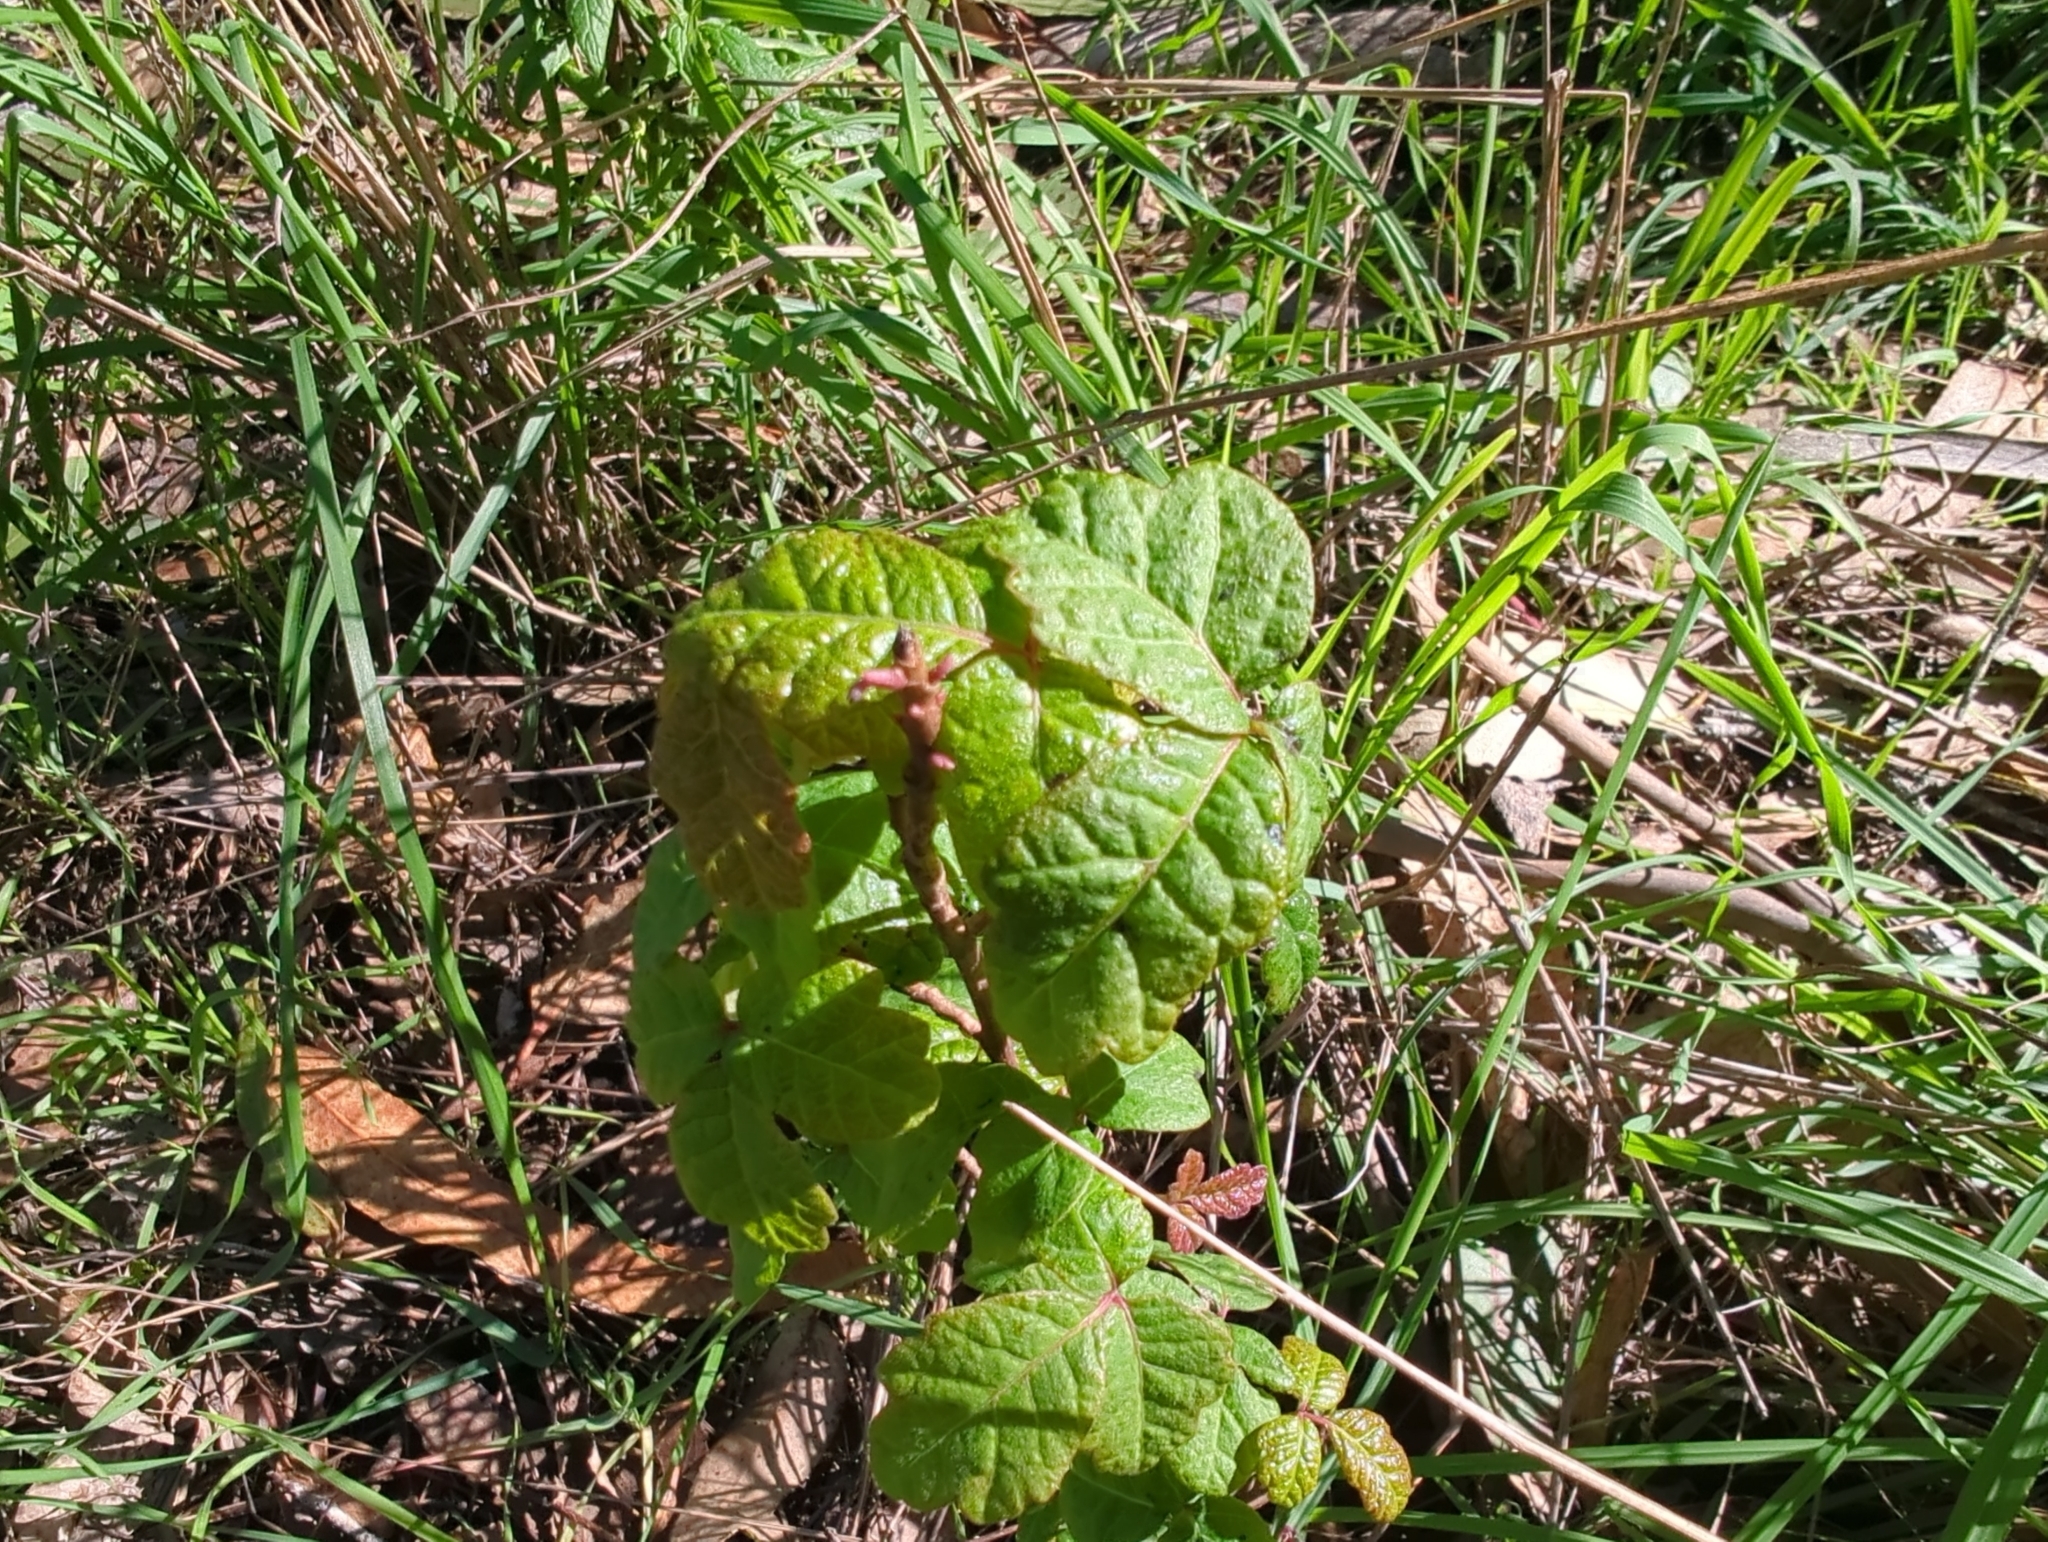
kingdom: Plantae
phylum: Tracheophyta
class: Magnoliopsida
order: Sapindales
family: Anacardiaceae
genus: Toxicodendron
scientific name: Toxicodendron diversilobum
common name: Pacific poison-oak
